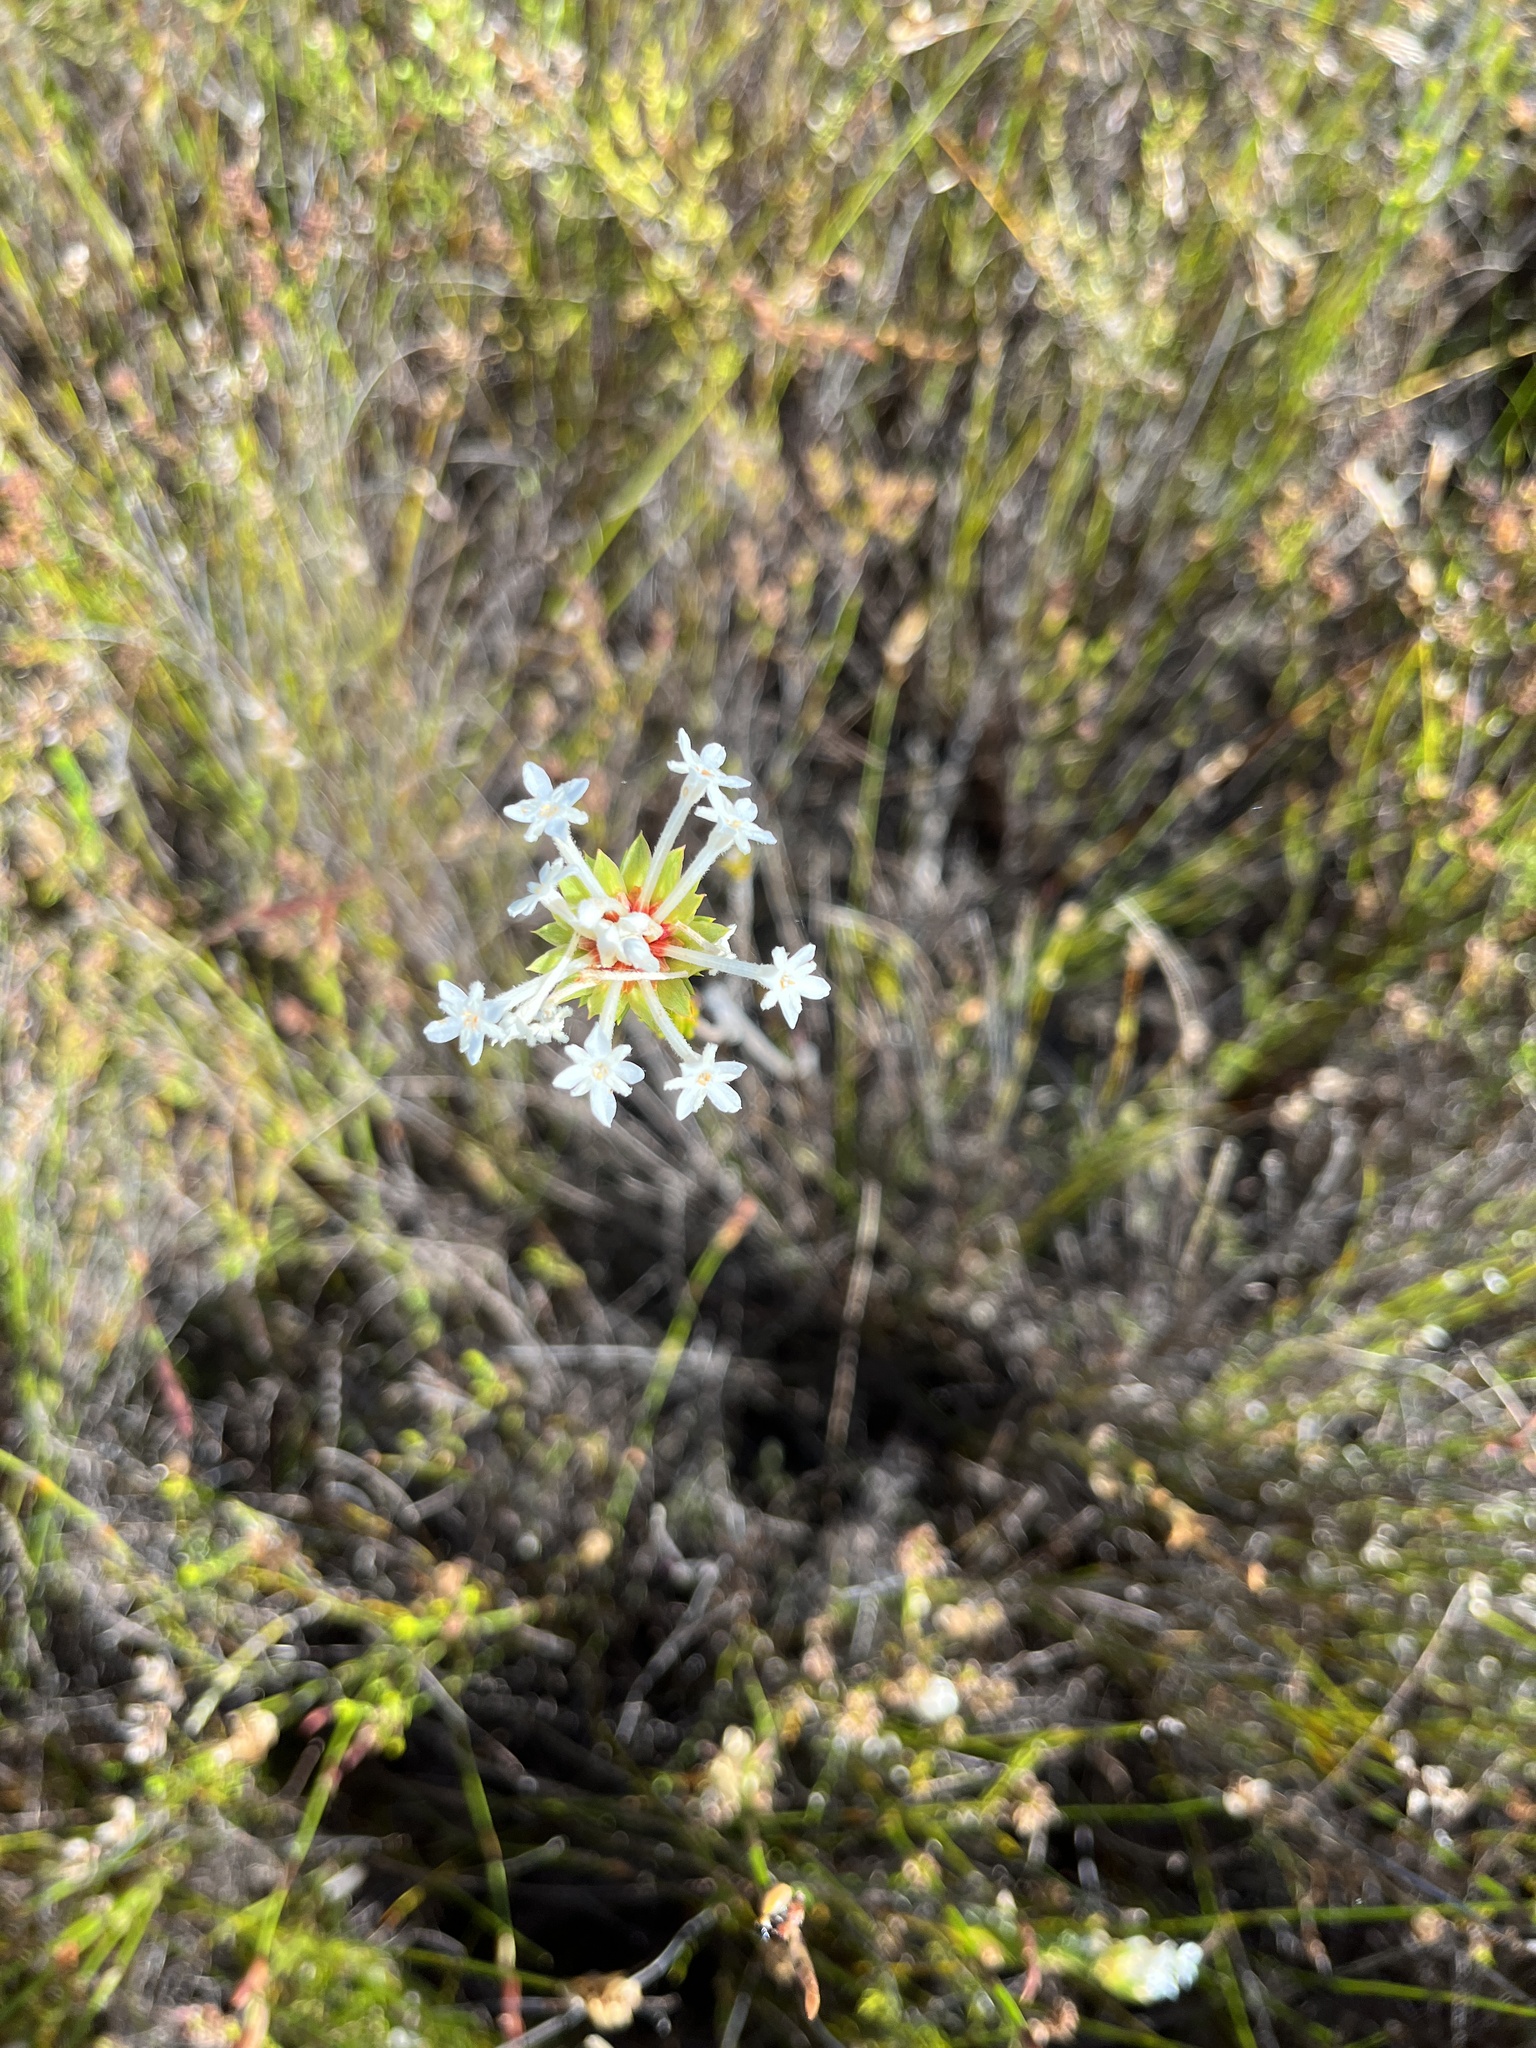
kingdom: Plantae
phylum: Tracheophyta
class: Magnoliopsida
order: Malvales
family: Thymelaeaceae
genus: Gnidia
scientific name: Gnidia pinifolia
